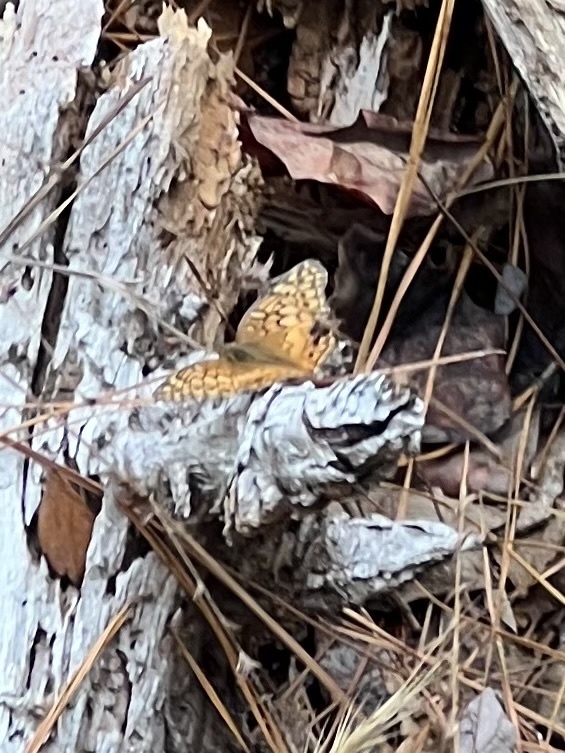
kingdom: Animalia
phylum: Arthropoda
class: Insecta
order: Lepidoptera
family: Nymphalidae
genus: Euptoieta
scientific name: Euptoieta claudia
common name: Variegated fritillary
